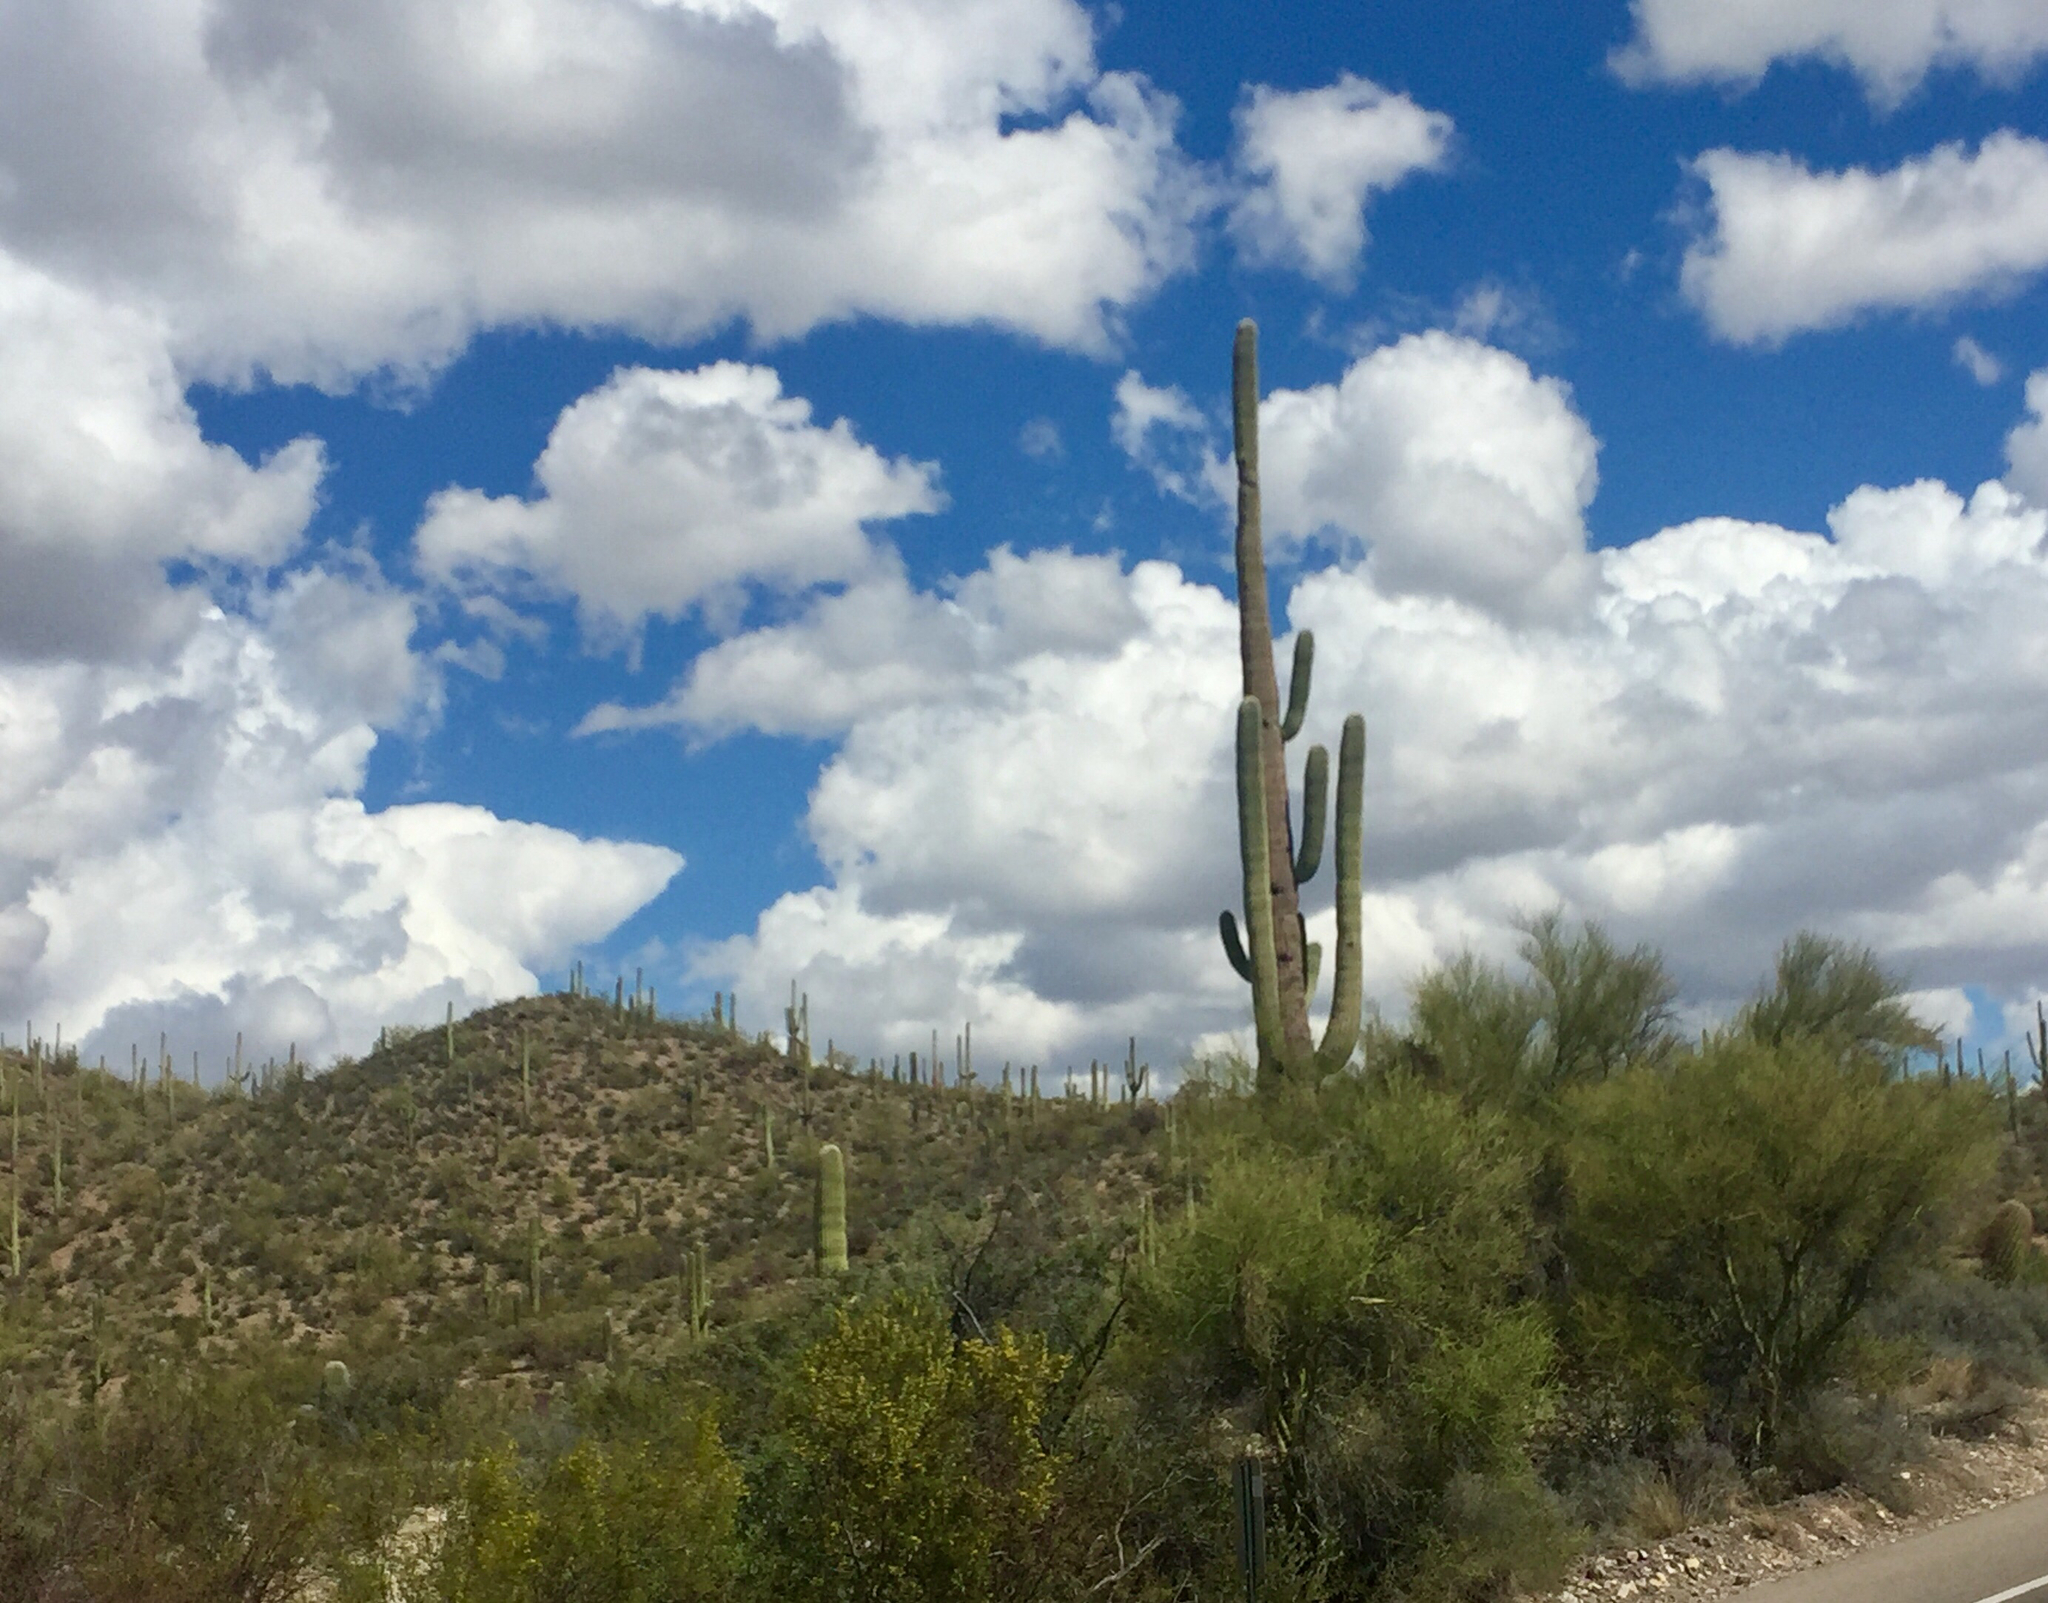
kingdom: Plantae
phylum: Tracheophyta
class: Magnoliopsida
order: Caryophyllales
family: Cactaceae
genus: Carnegiea
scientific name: Carnegiea gigantea
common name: Saguaro
